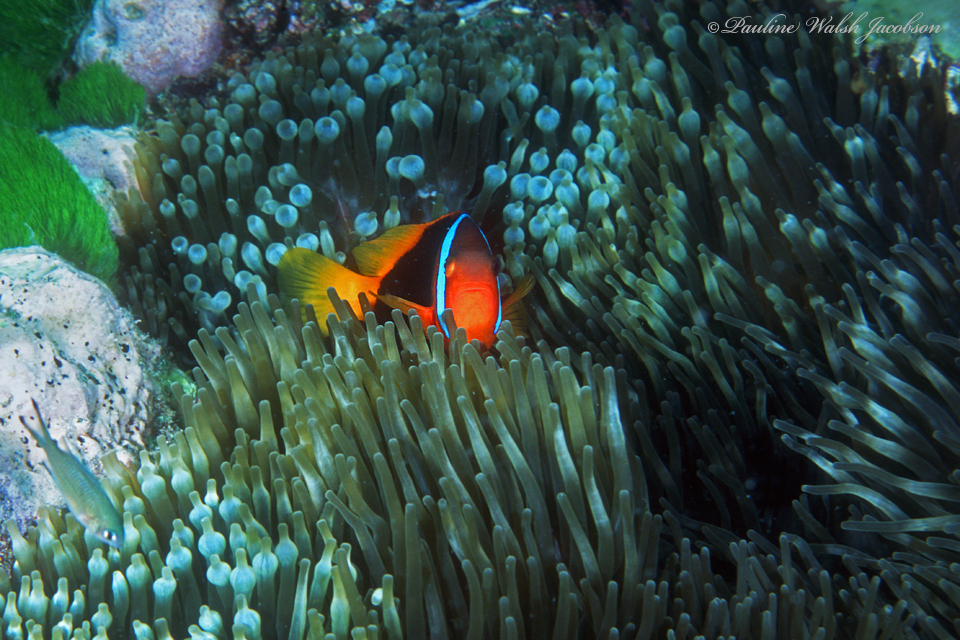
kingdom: Animalia
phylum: Chordata
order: Perciformes
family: Pomacentridae
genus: Amphiprion
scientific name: Amphiprion melanopus
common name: Black anemonefish
